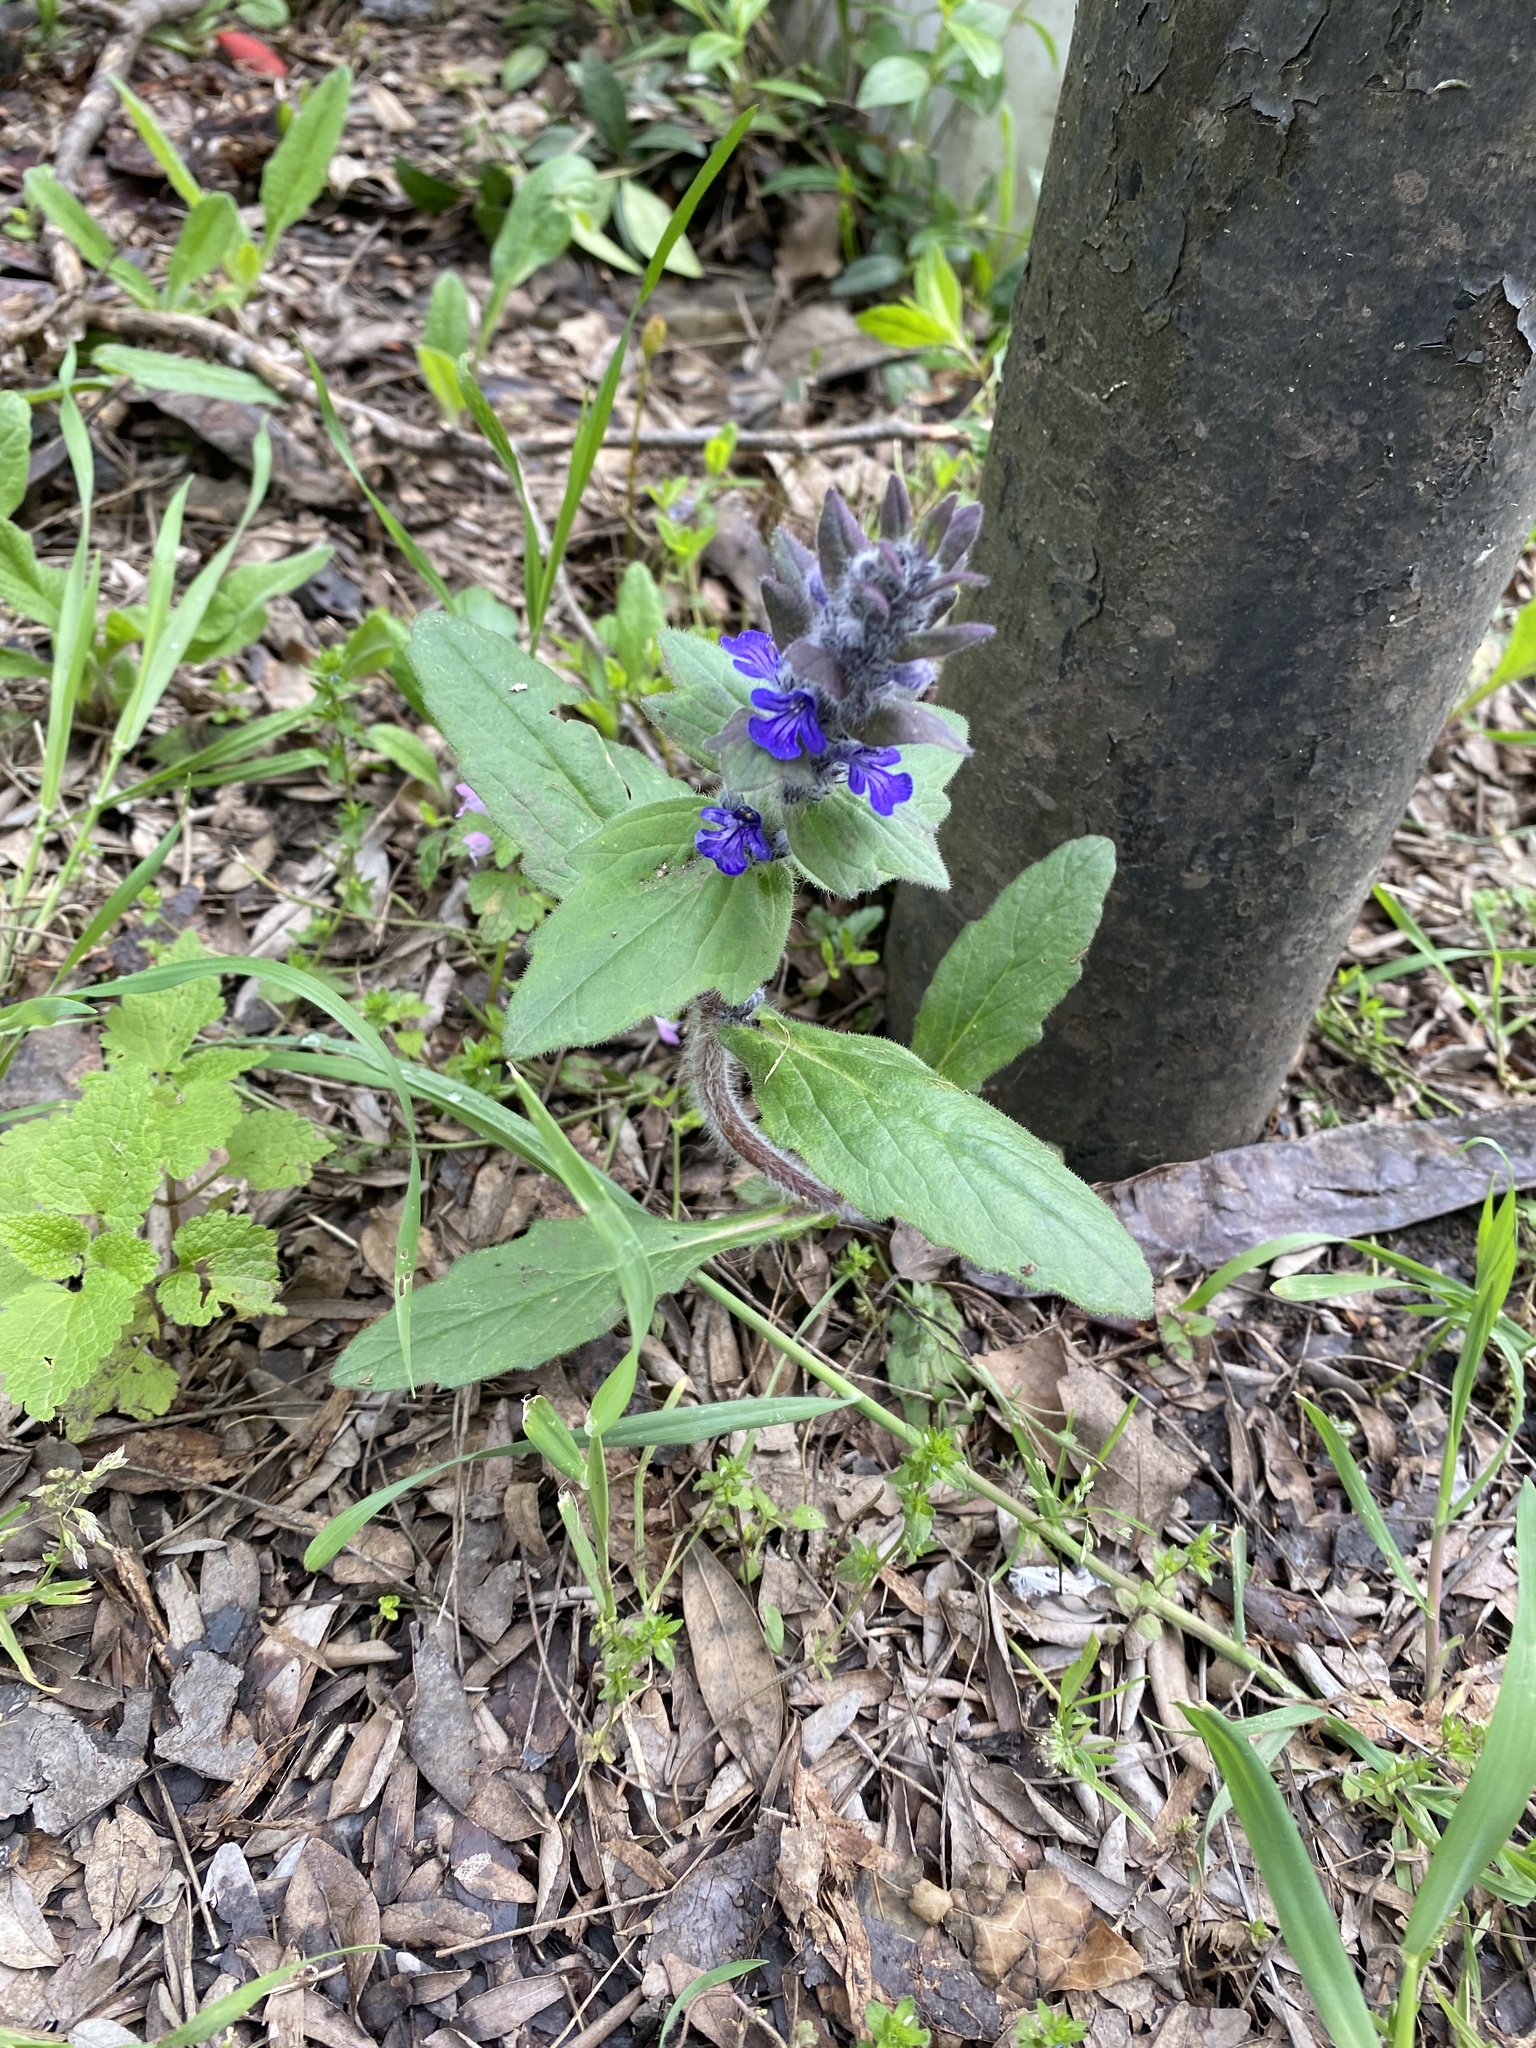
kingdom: Plantae
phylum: Tracheophyta
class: Magnoliopsida
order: Lamiales
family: Lamiaceae
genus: Ajuga
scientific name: Ajuga genevensis
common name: Blue bugle
